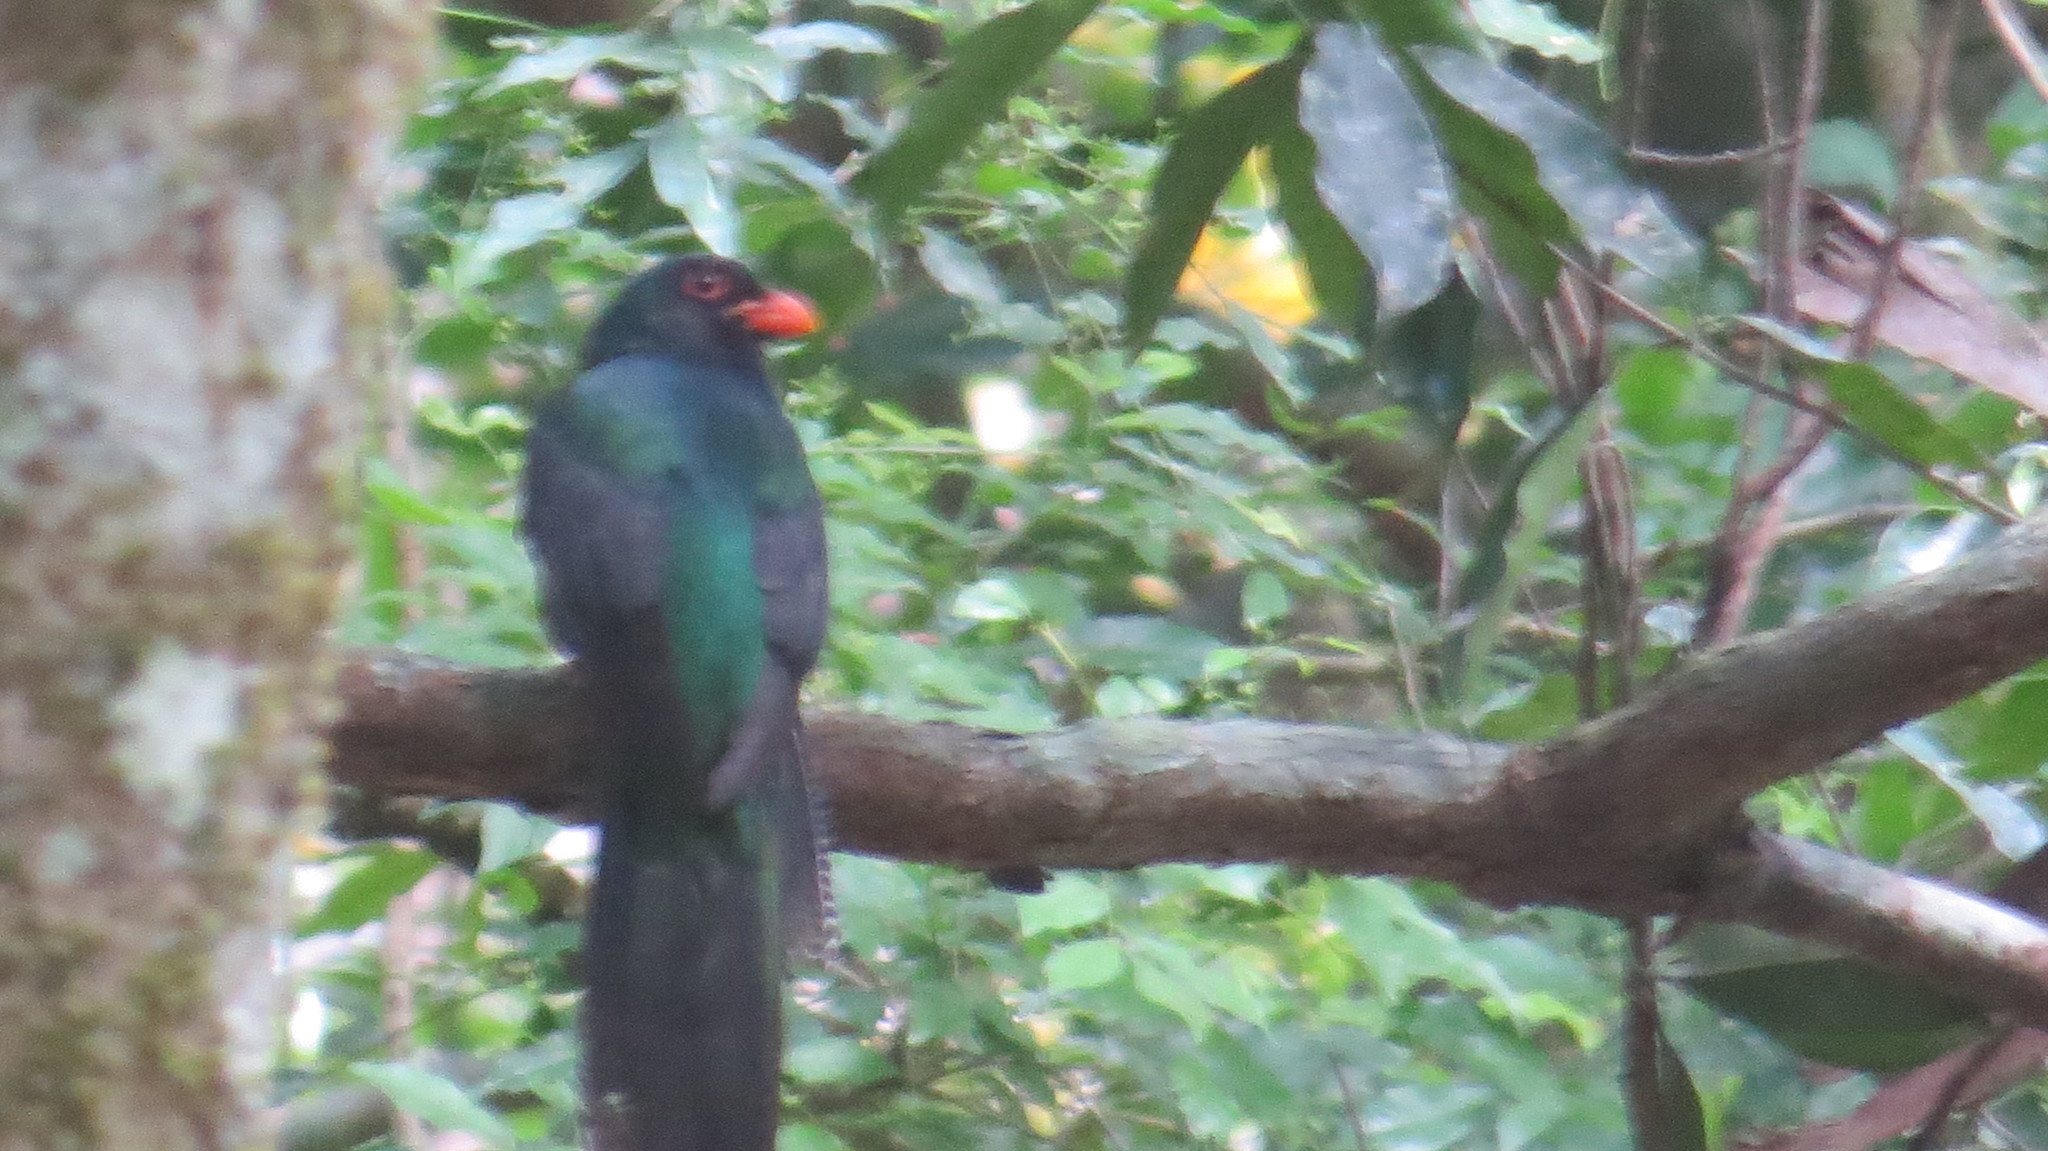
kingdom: Animalia
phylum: Chordata
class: Aves
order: Trogoniformes
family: Trogonidae
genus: Trogon
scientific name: Trogon massena
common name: Slaty-tailed trogon
